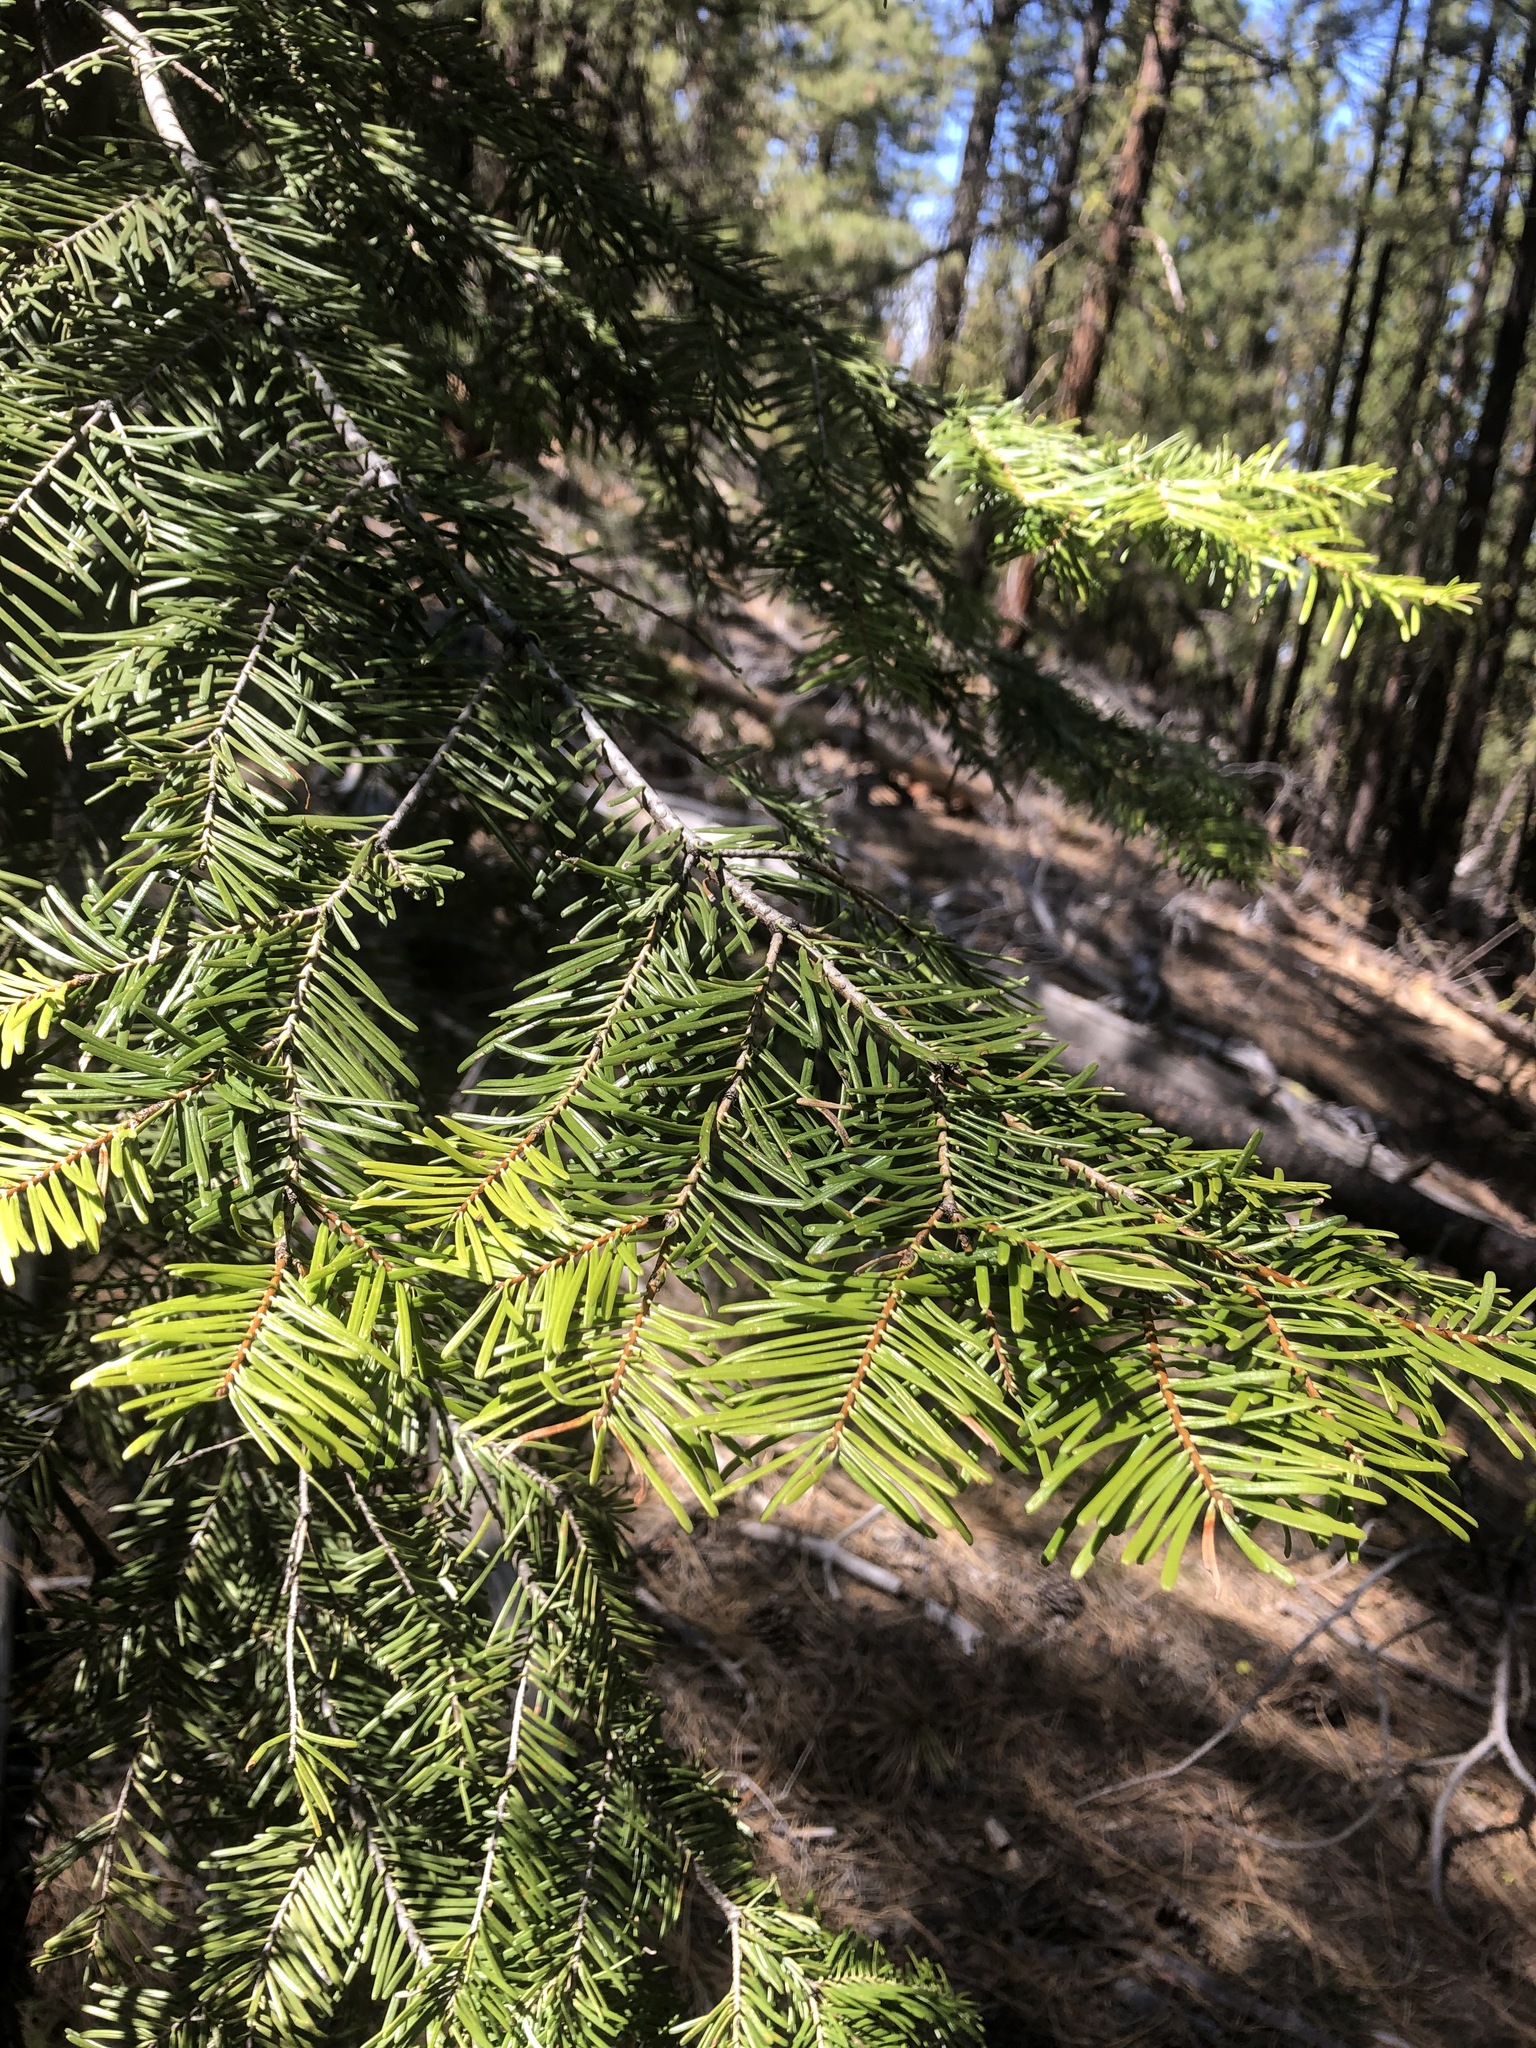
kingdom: Plantae
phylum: Tracheophyta
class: Pinopsida
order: Pinales
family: Pinaceae
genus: Abies
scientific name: Abies grandis
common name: Giant fir
